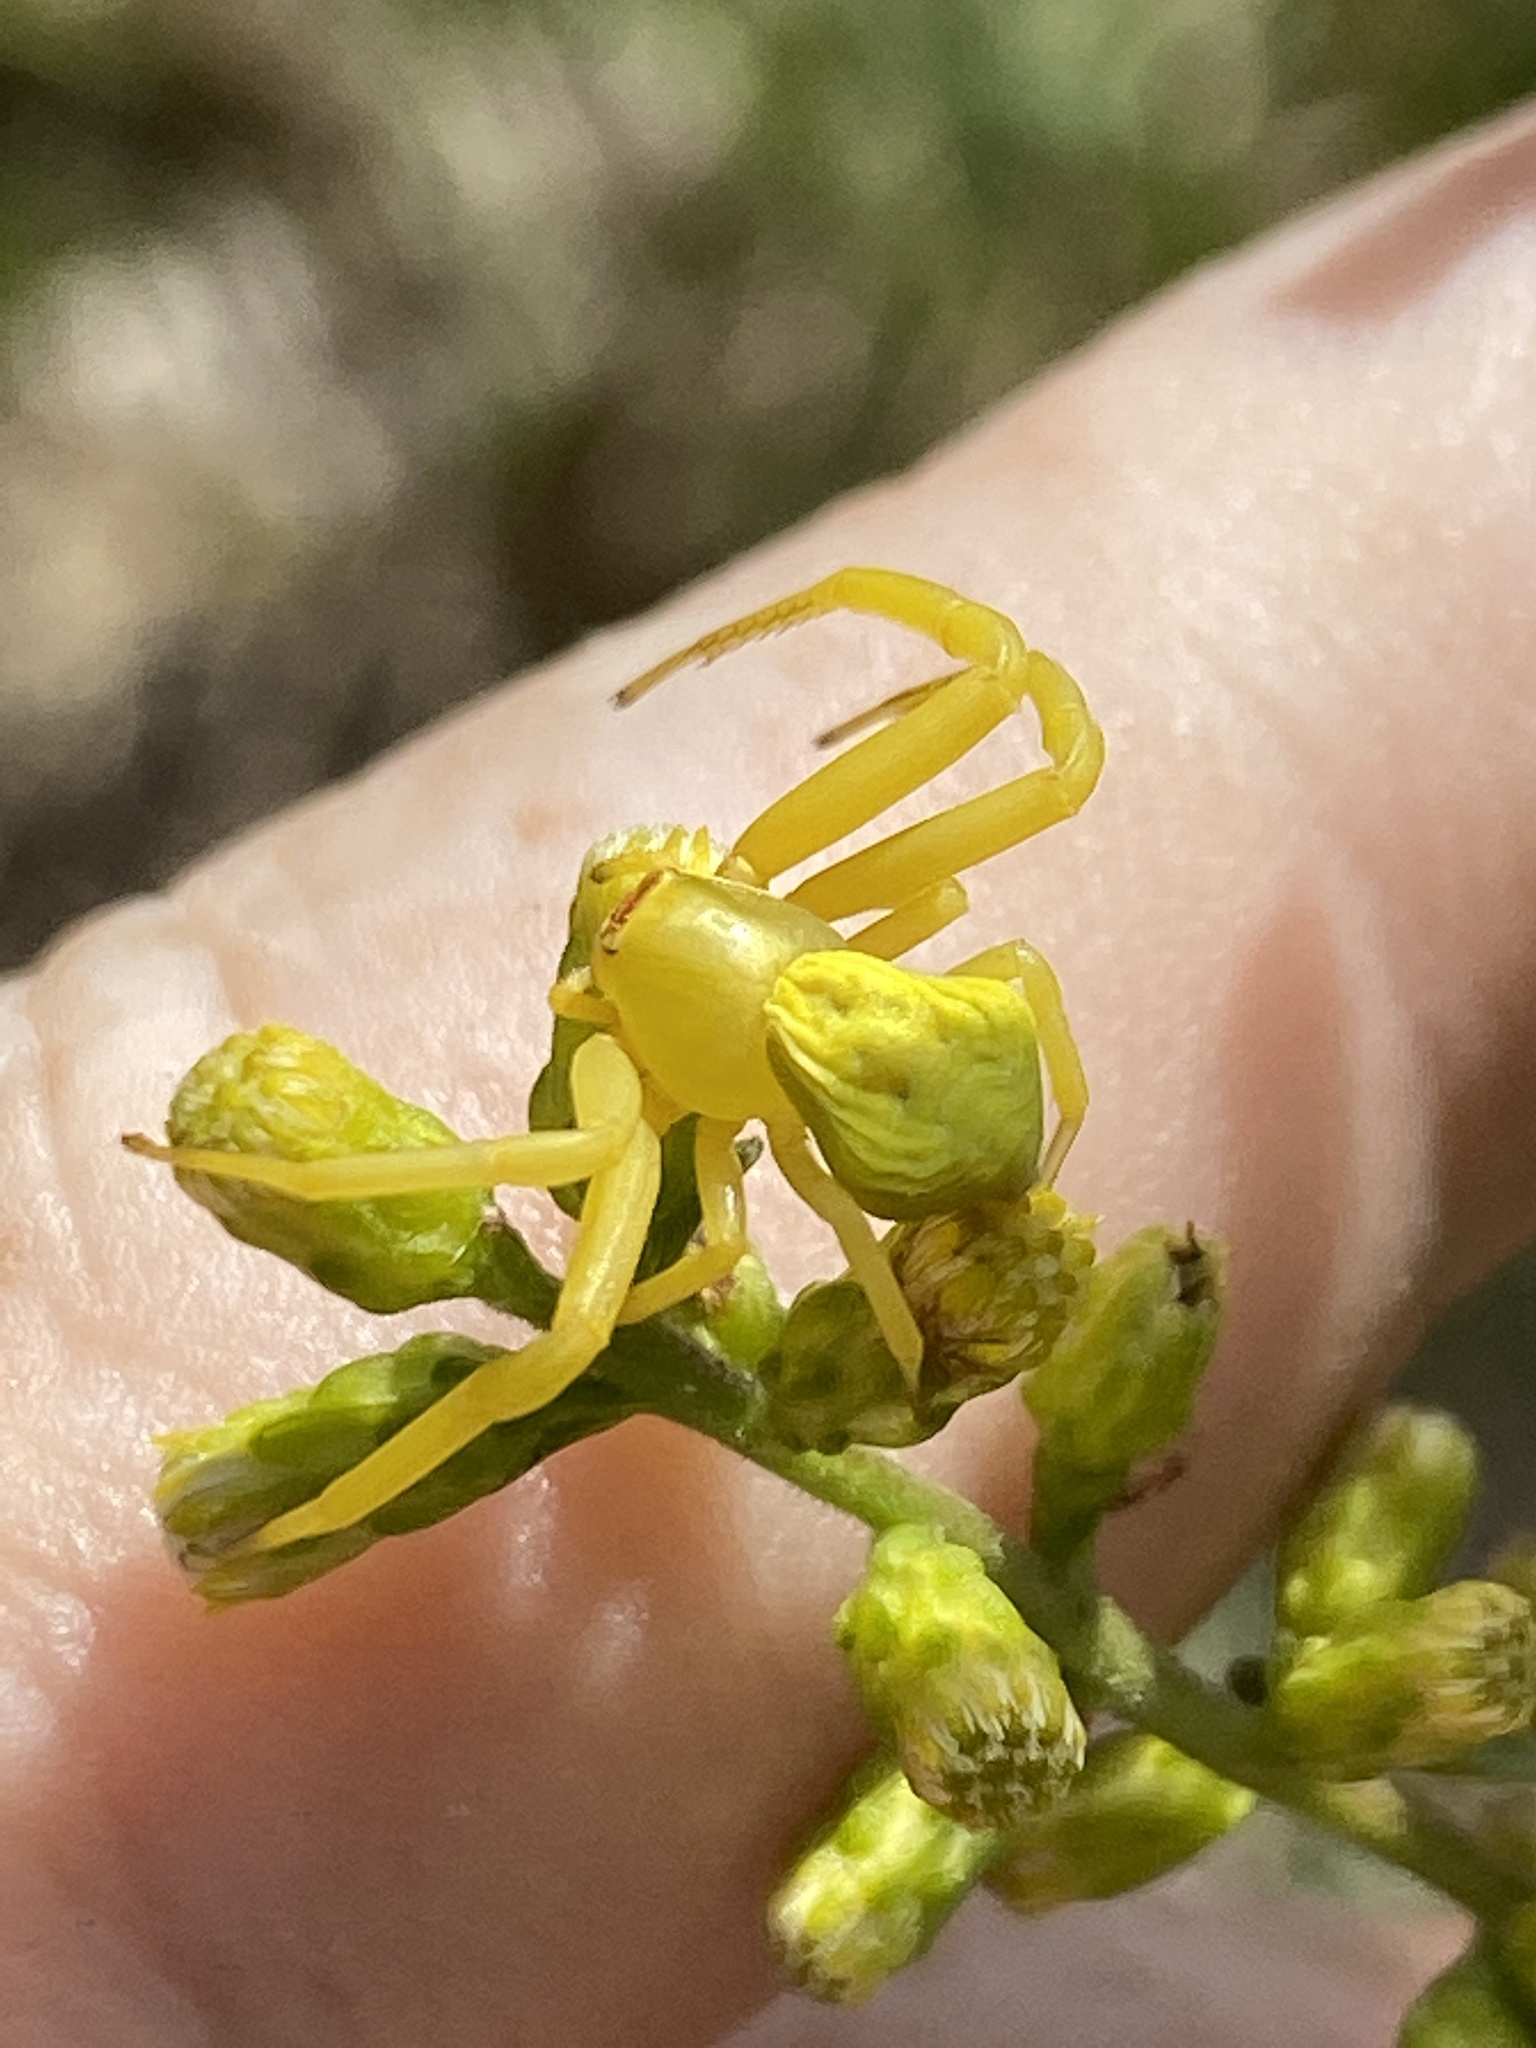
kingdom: Animalia
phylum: Arthropoda
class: Arachnida
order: Araneae
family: Thomisidae
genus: Misumenoides
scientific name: Misumenoides formosipes
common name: White-banded crab spider
